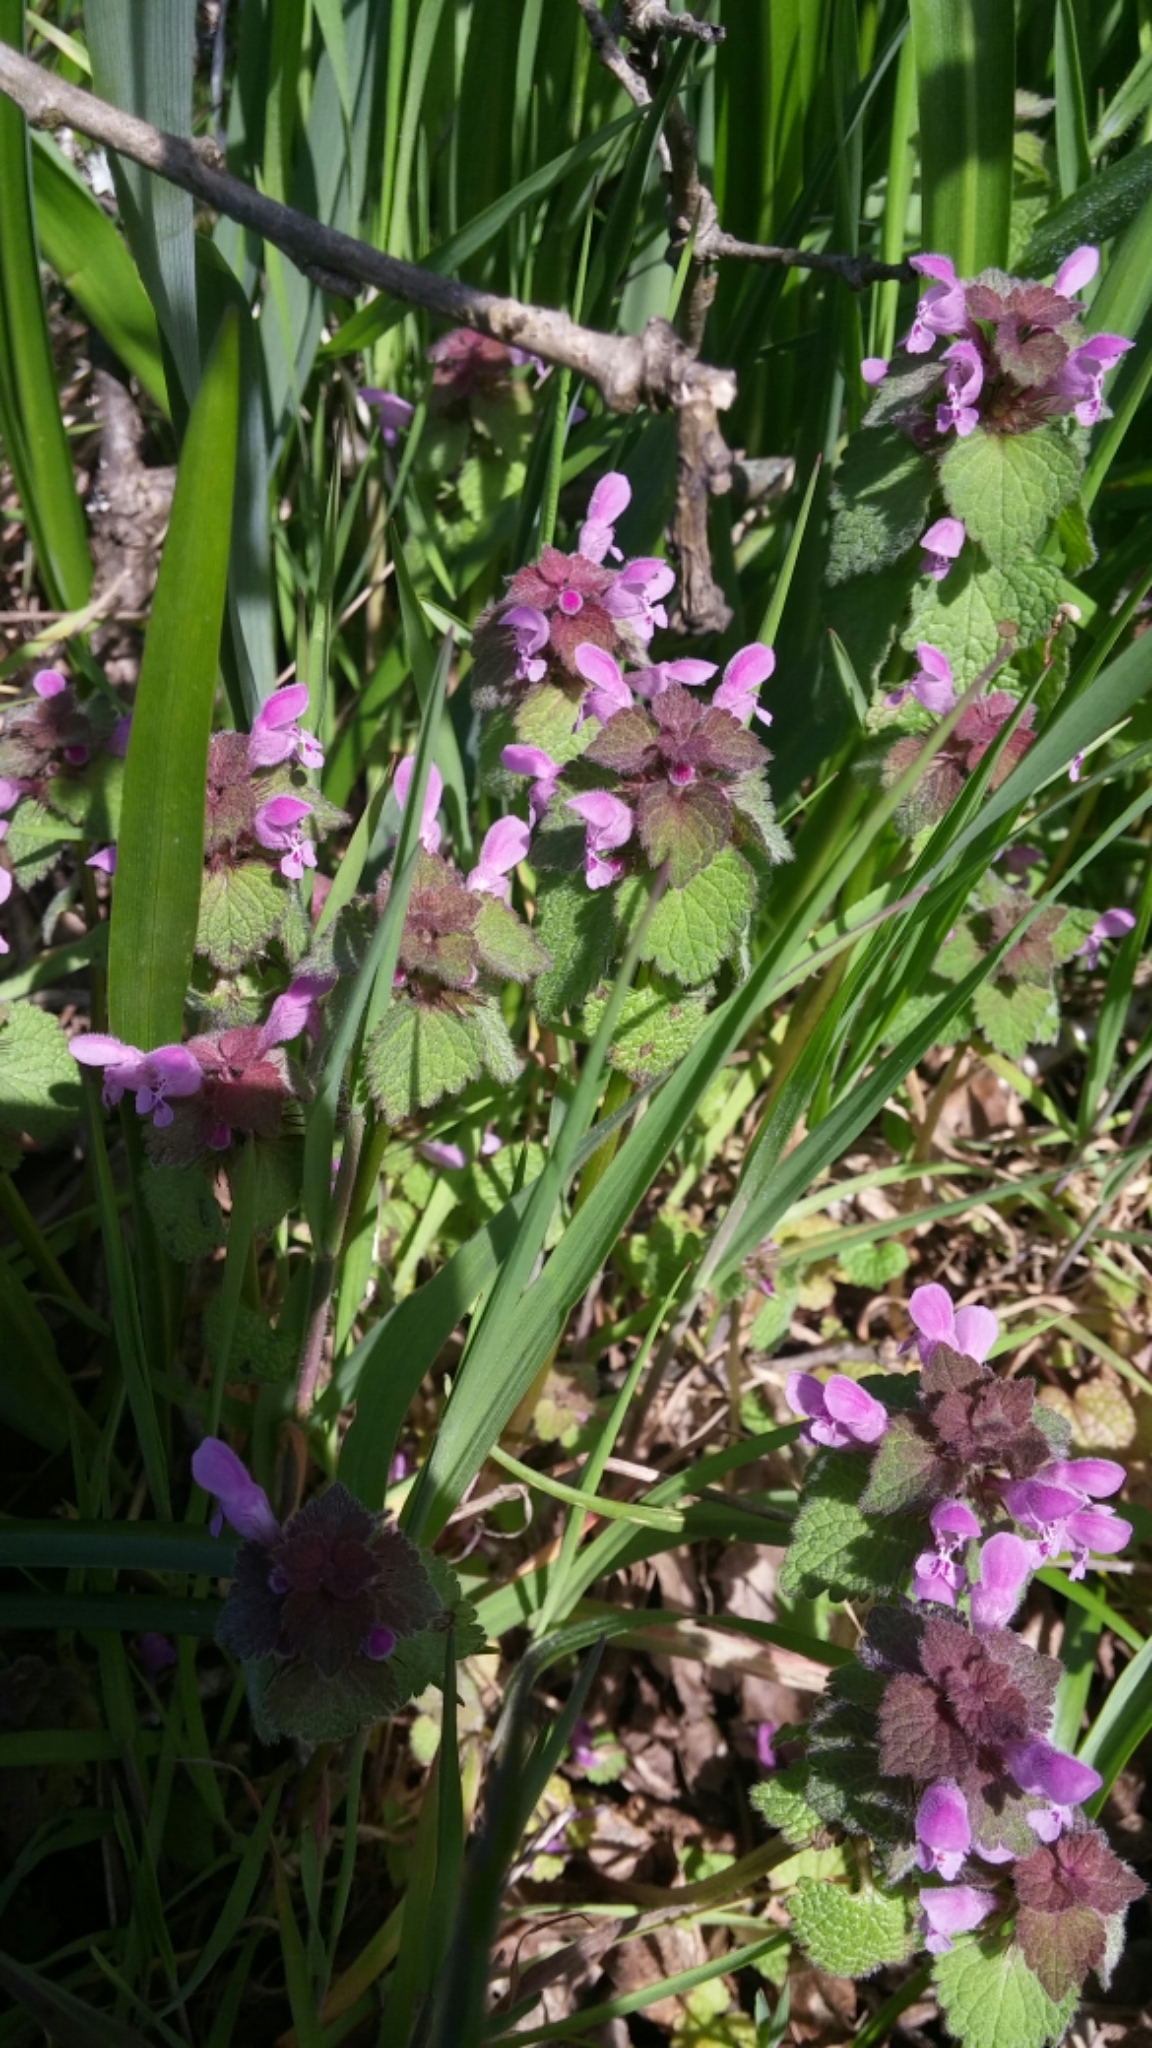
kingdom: Plantae
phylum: Tracheophyta
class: Magnoliopsida
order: Lamiales
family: Lamiaceae
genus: Lamium
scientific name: Lamium purpureum
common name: Red dead-nettle
